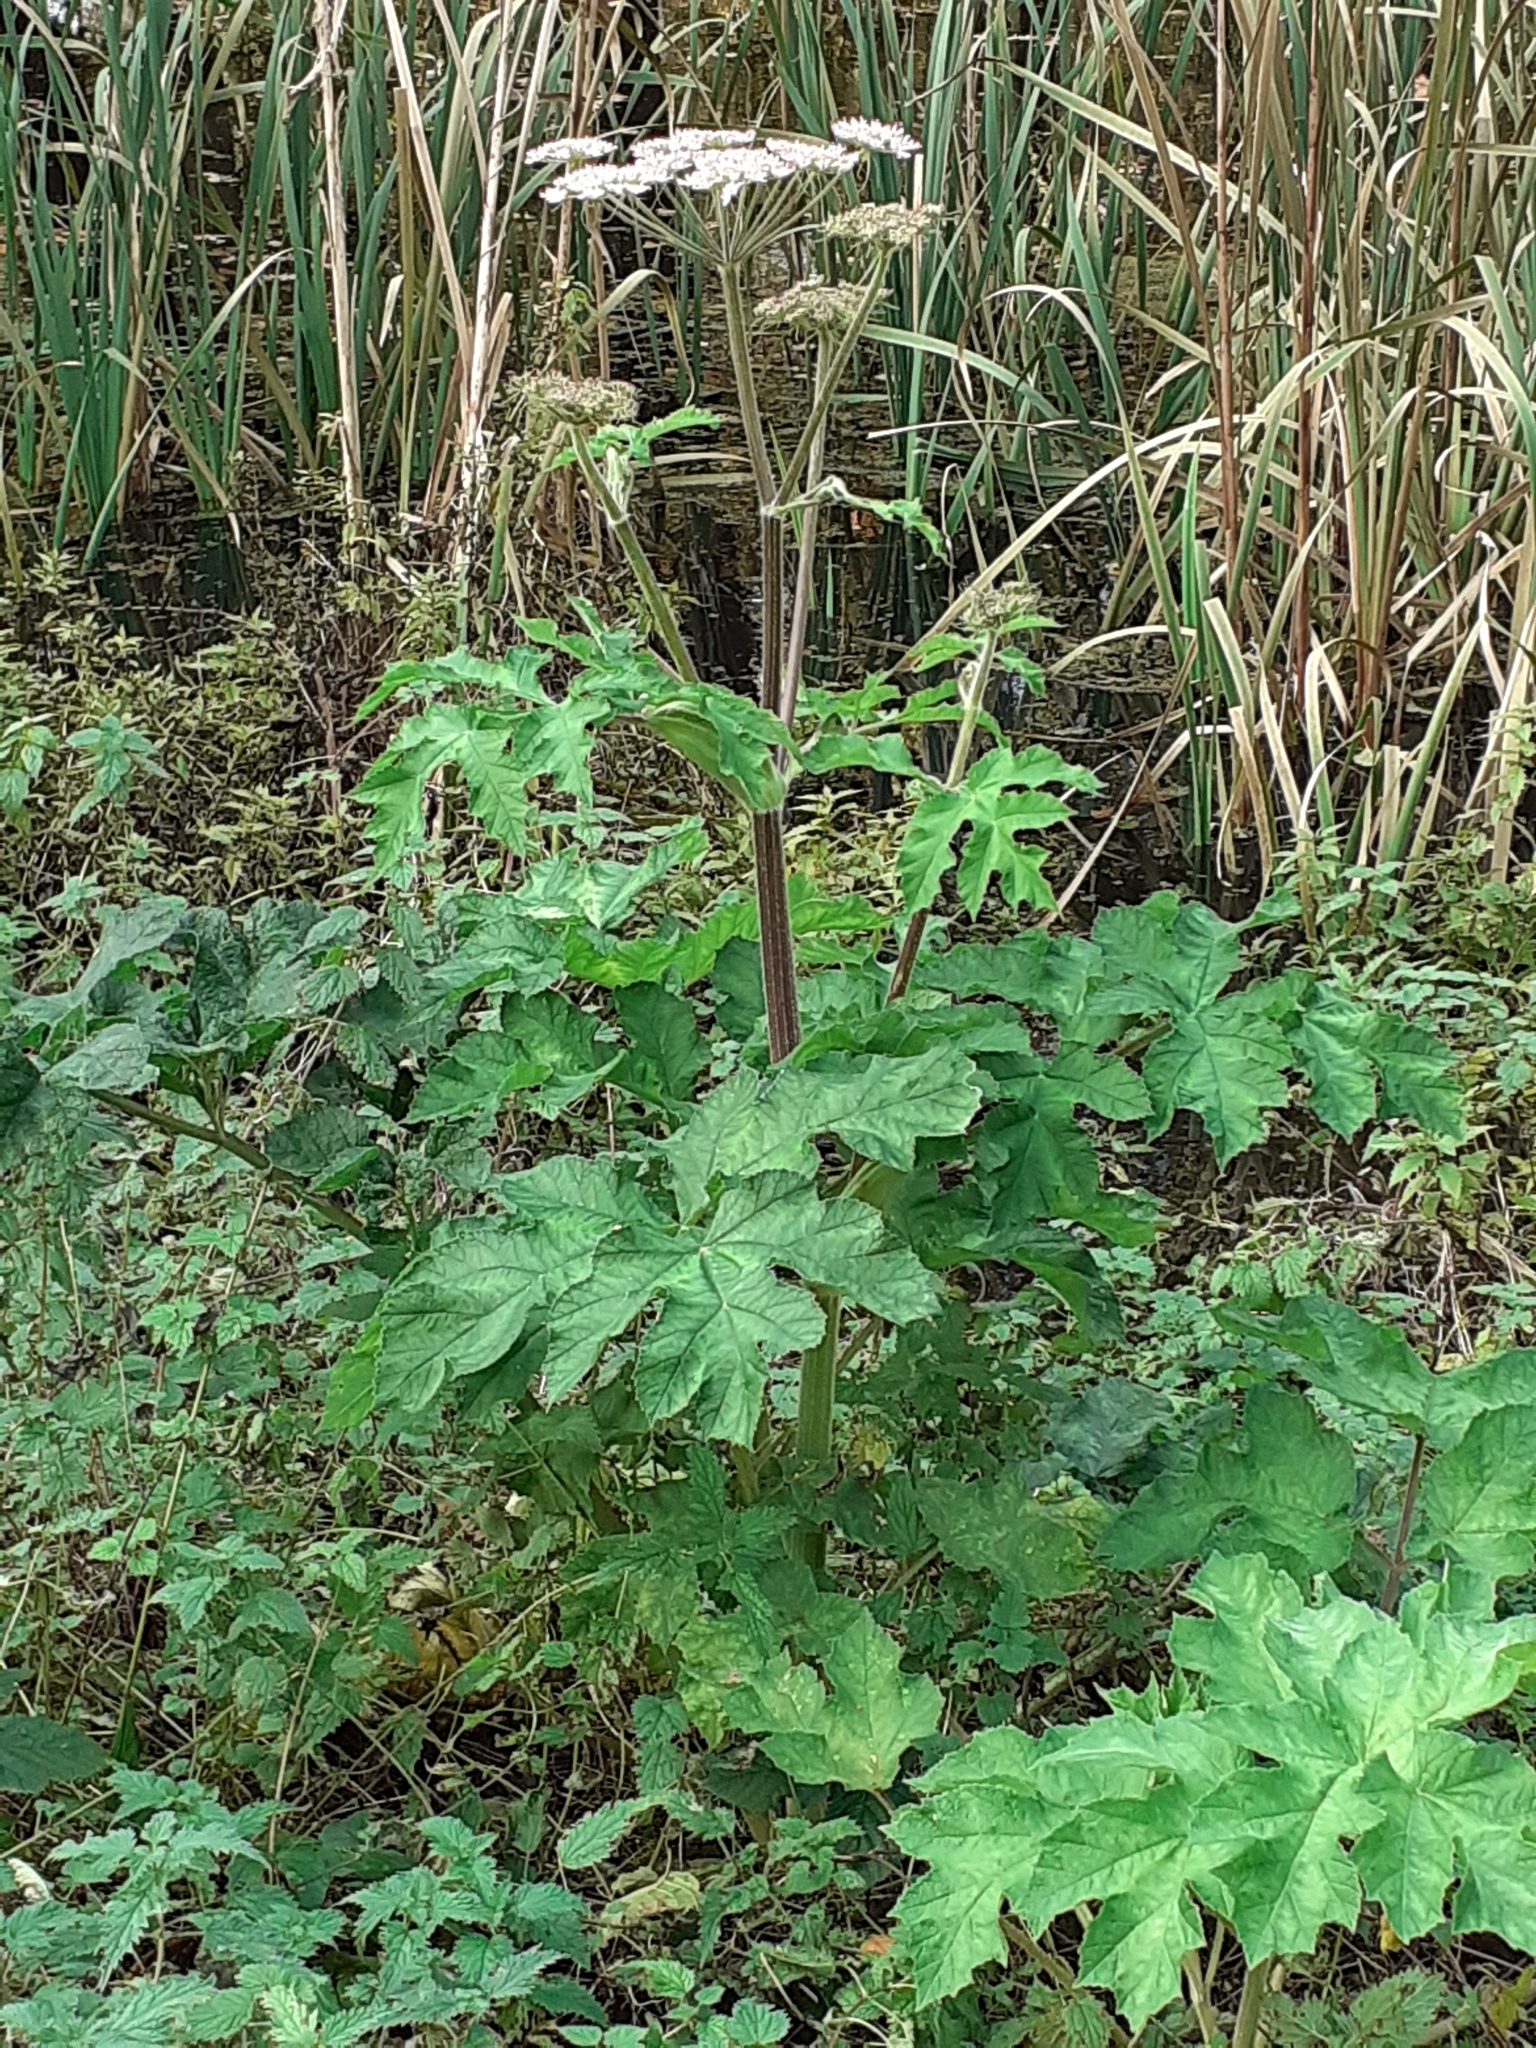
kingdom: Plantae
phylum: Tracheophyta
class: Magnoliopsida
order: Apiales
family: Apiaceae
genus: Heracleum
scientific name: Heracleum sphondylium
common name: Hogweed
